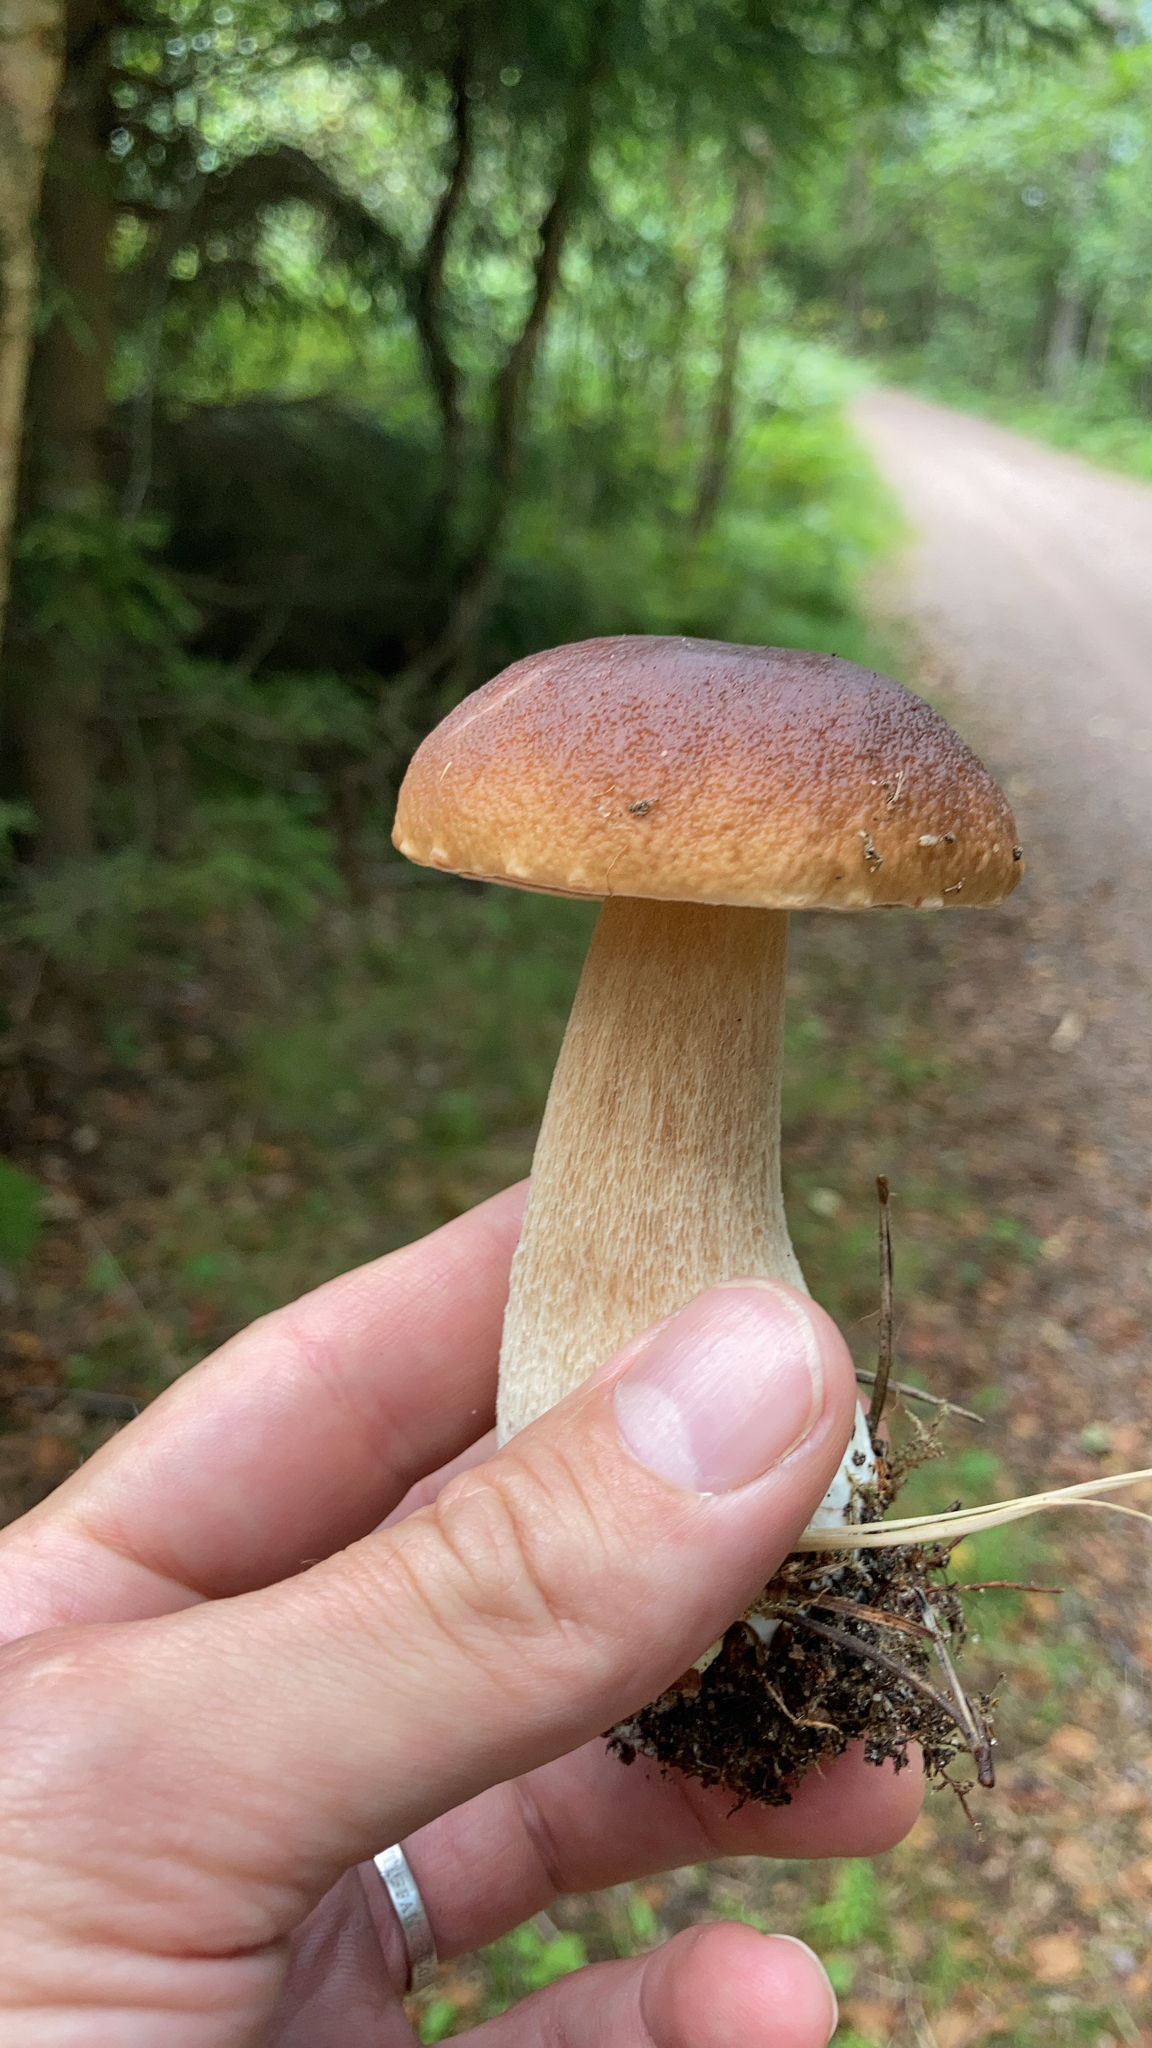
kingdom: Fungi
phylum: Basidiomycota
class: Agaricomycetes
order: Boletales
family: Boletaceae
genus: Boletus
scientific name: Boletus edulis
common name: Cep
